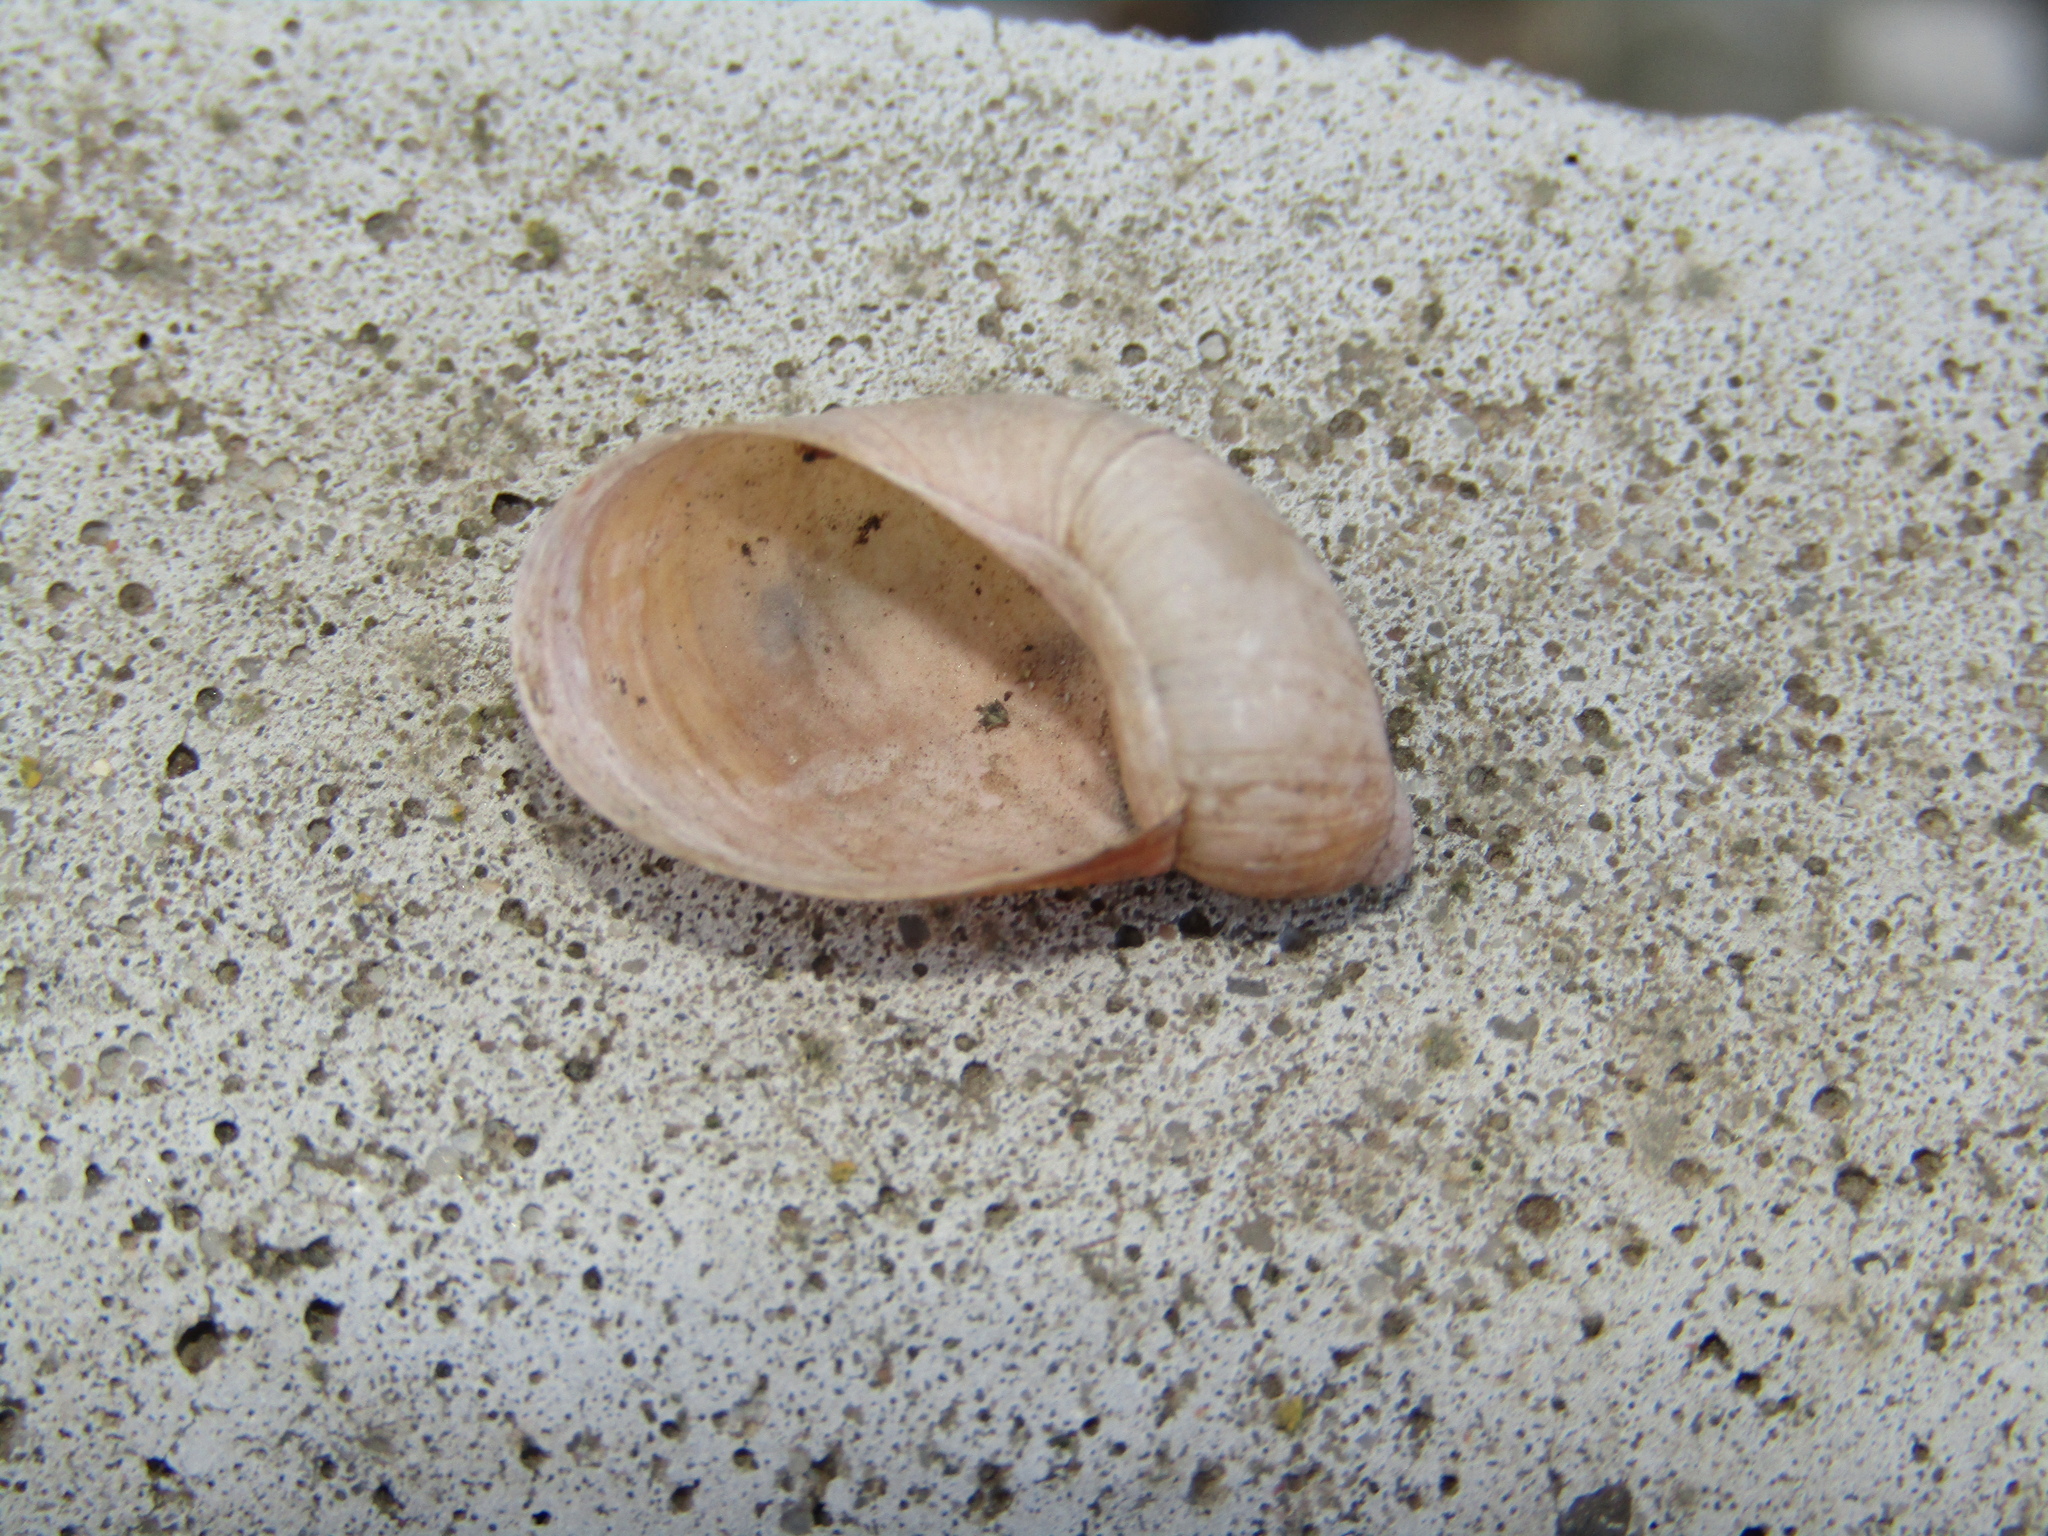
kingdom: Animalia
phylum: Mollusca
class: Gastropoda
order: Stylommatophora
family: Succineidae
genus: Succinea
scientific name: Succinea putris
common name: European ambersnail
